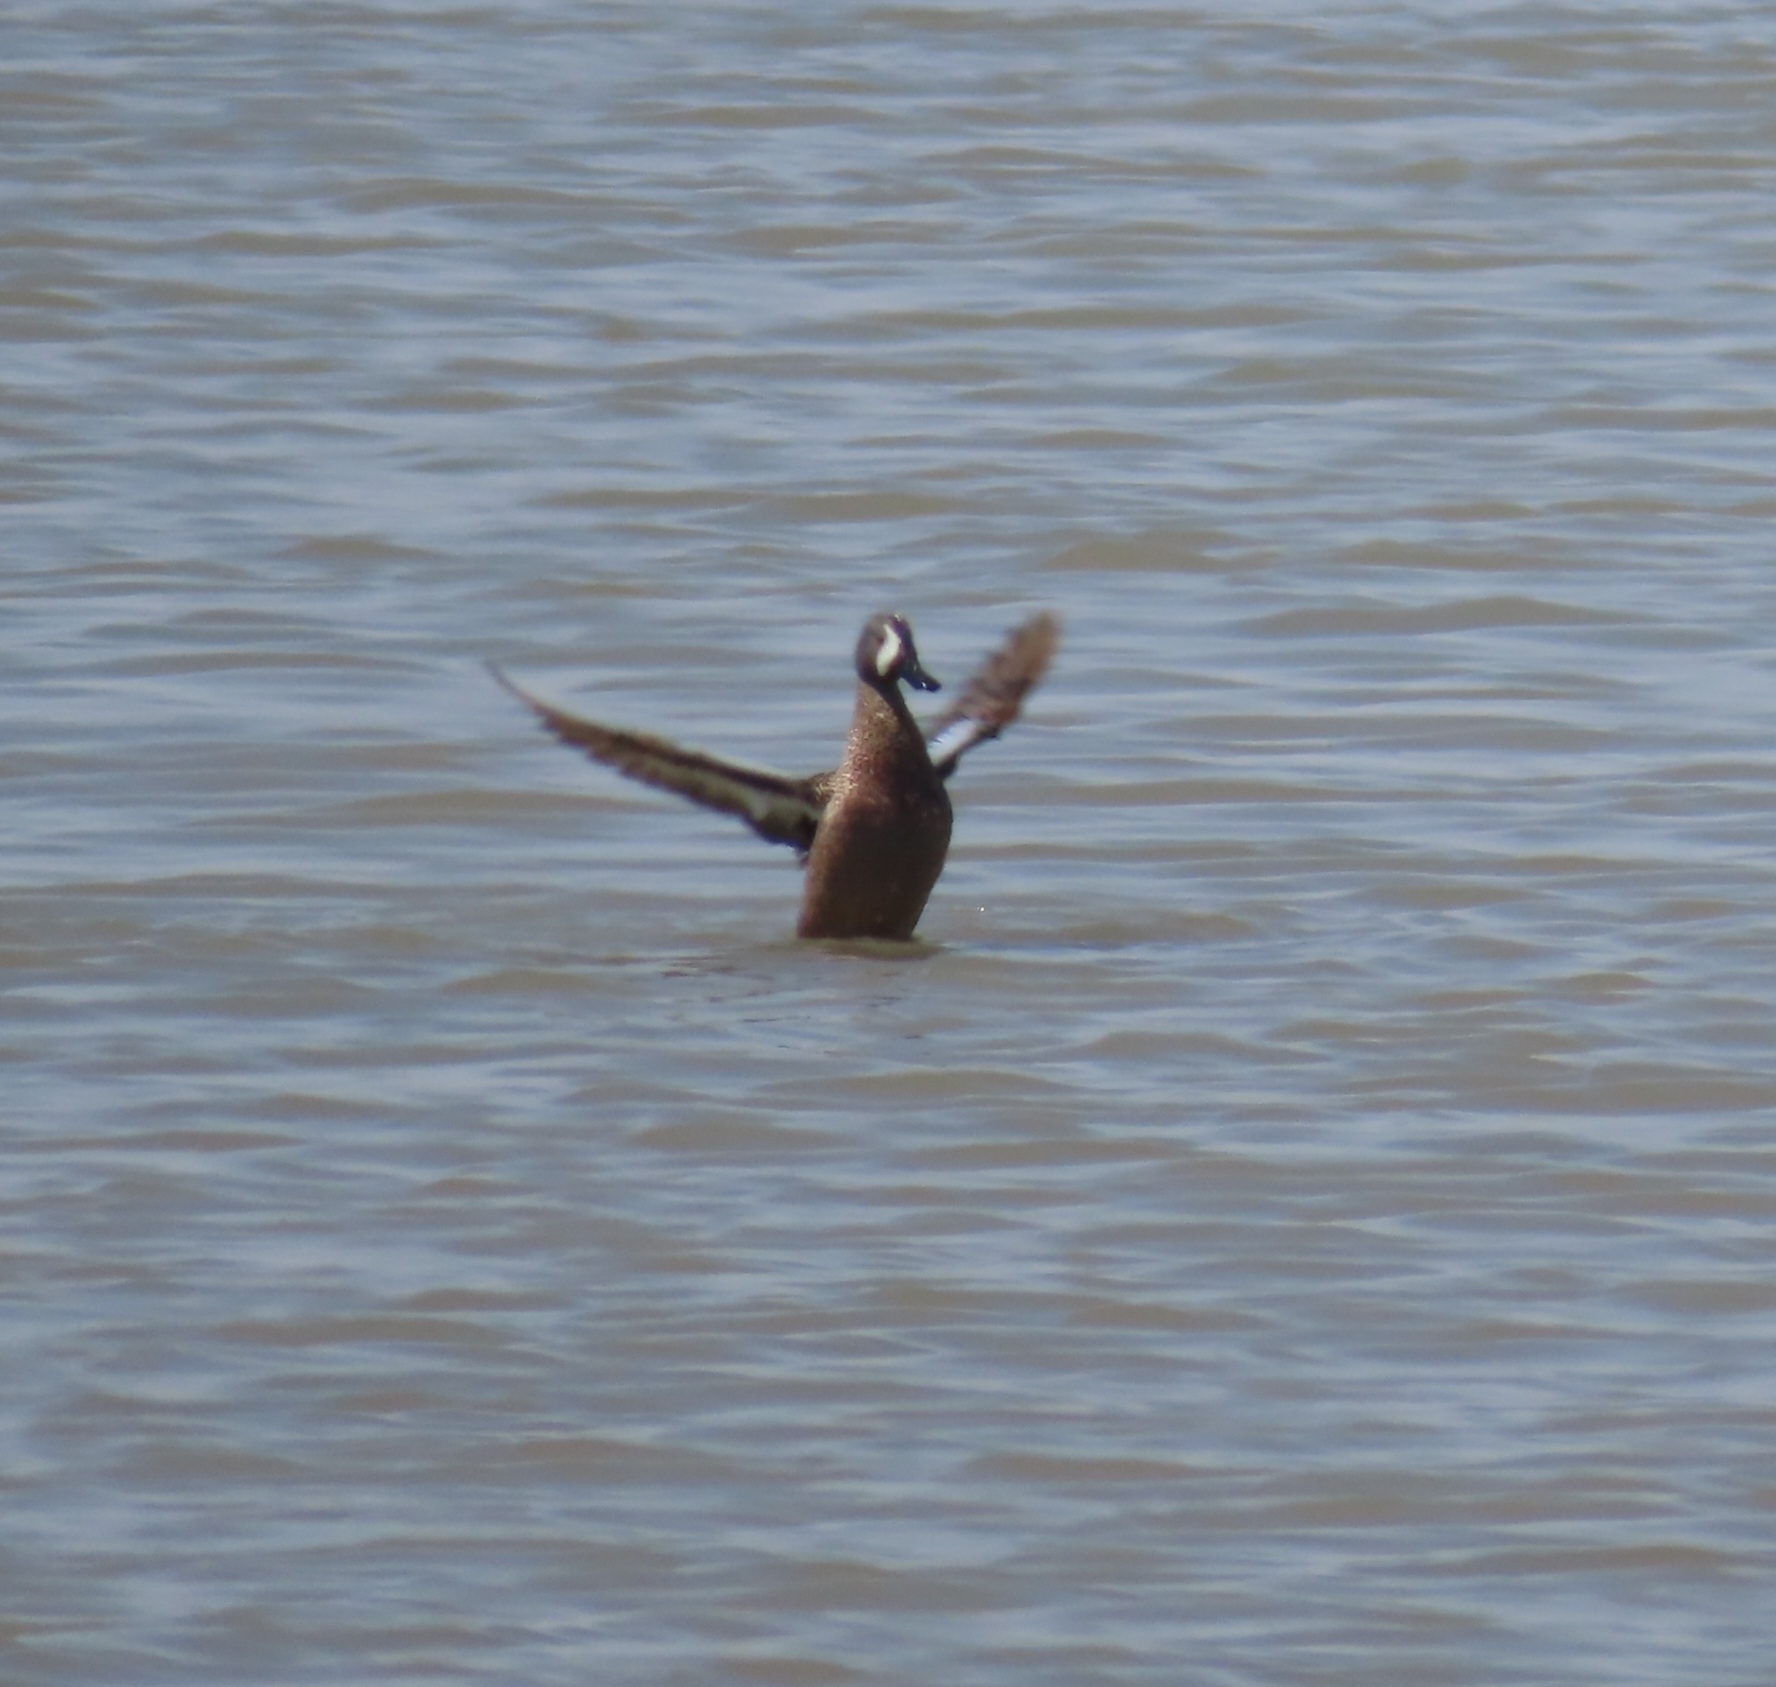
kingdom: Animalia
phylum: Chordata
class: Aves
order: Anseriformes
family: Anatidae
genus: Spatula
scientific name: Spatula discors
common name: Blue-winged teal
